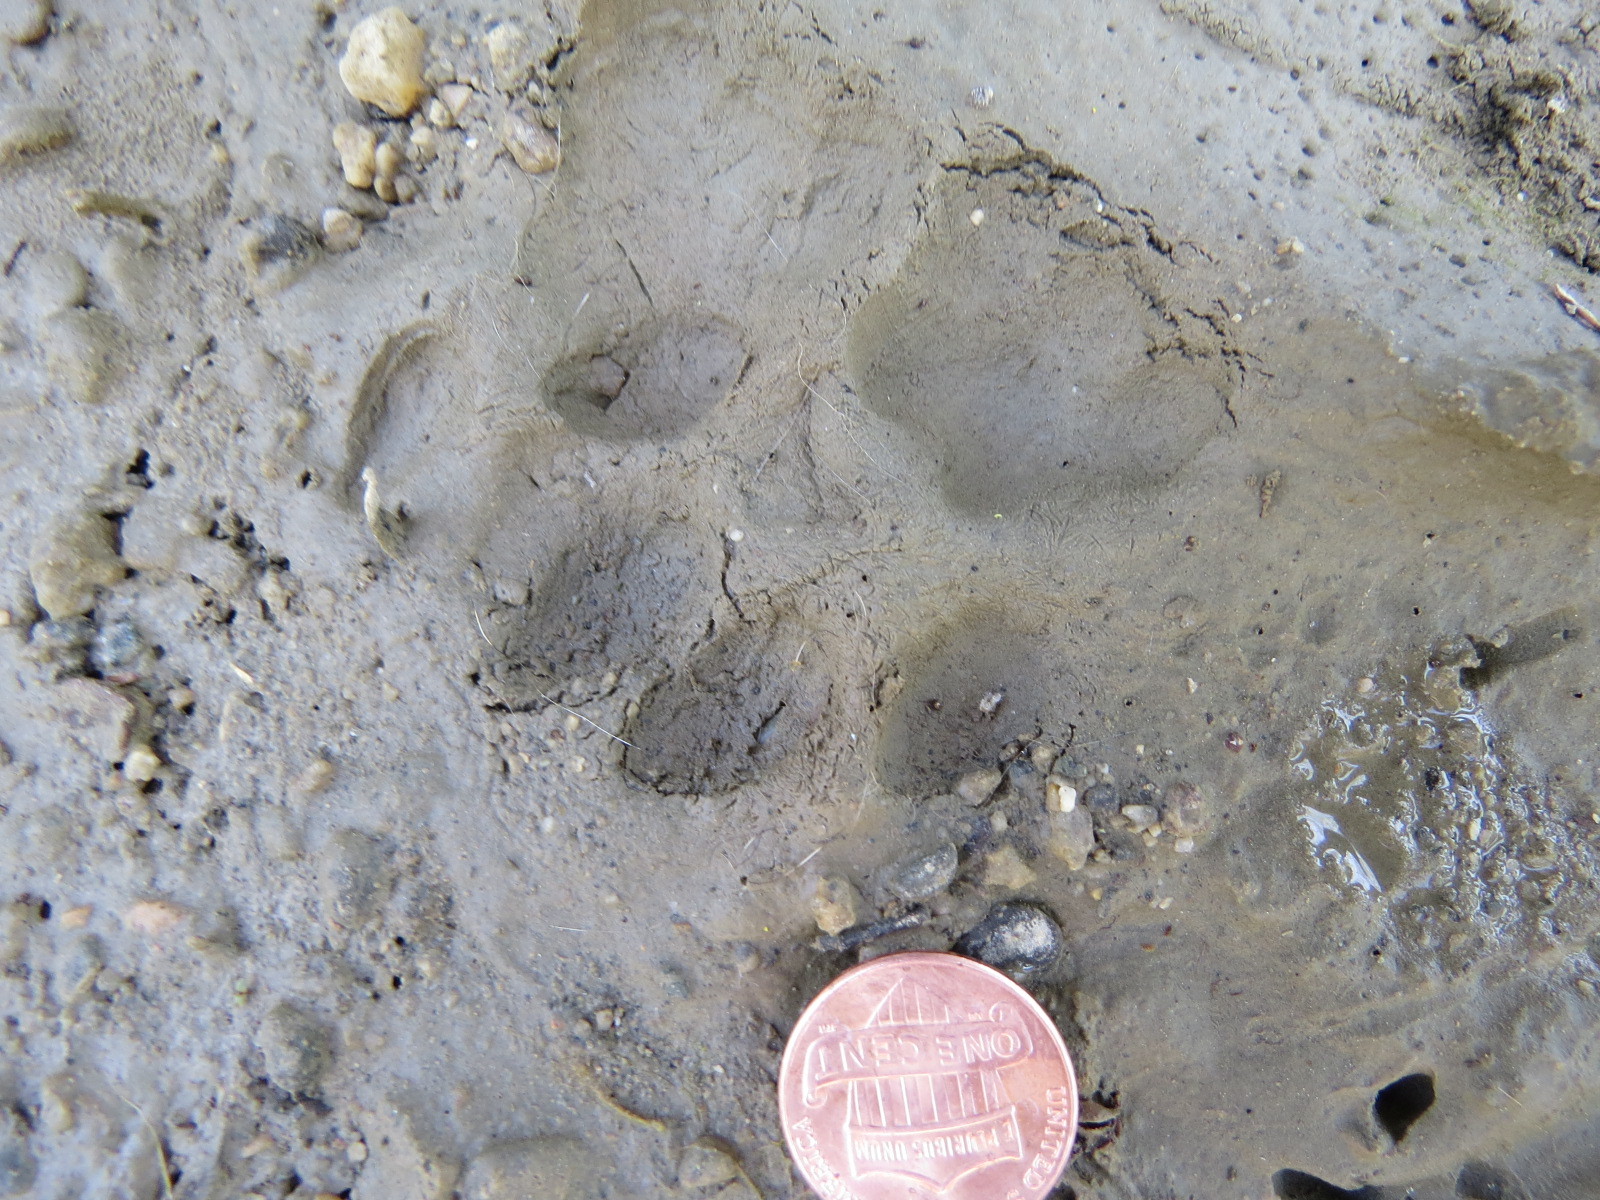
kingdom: Animalia
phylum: Chordata
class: Mammalia
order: Carnivora
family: Felidae
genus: Lynx
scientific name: Lynx rufus
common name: Bobcat
